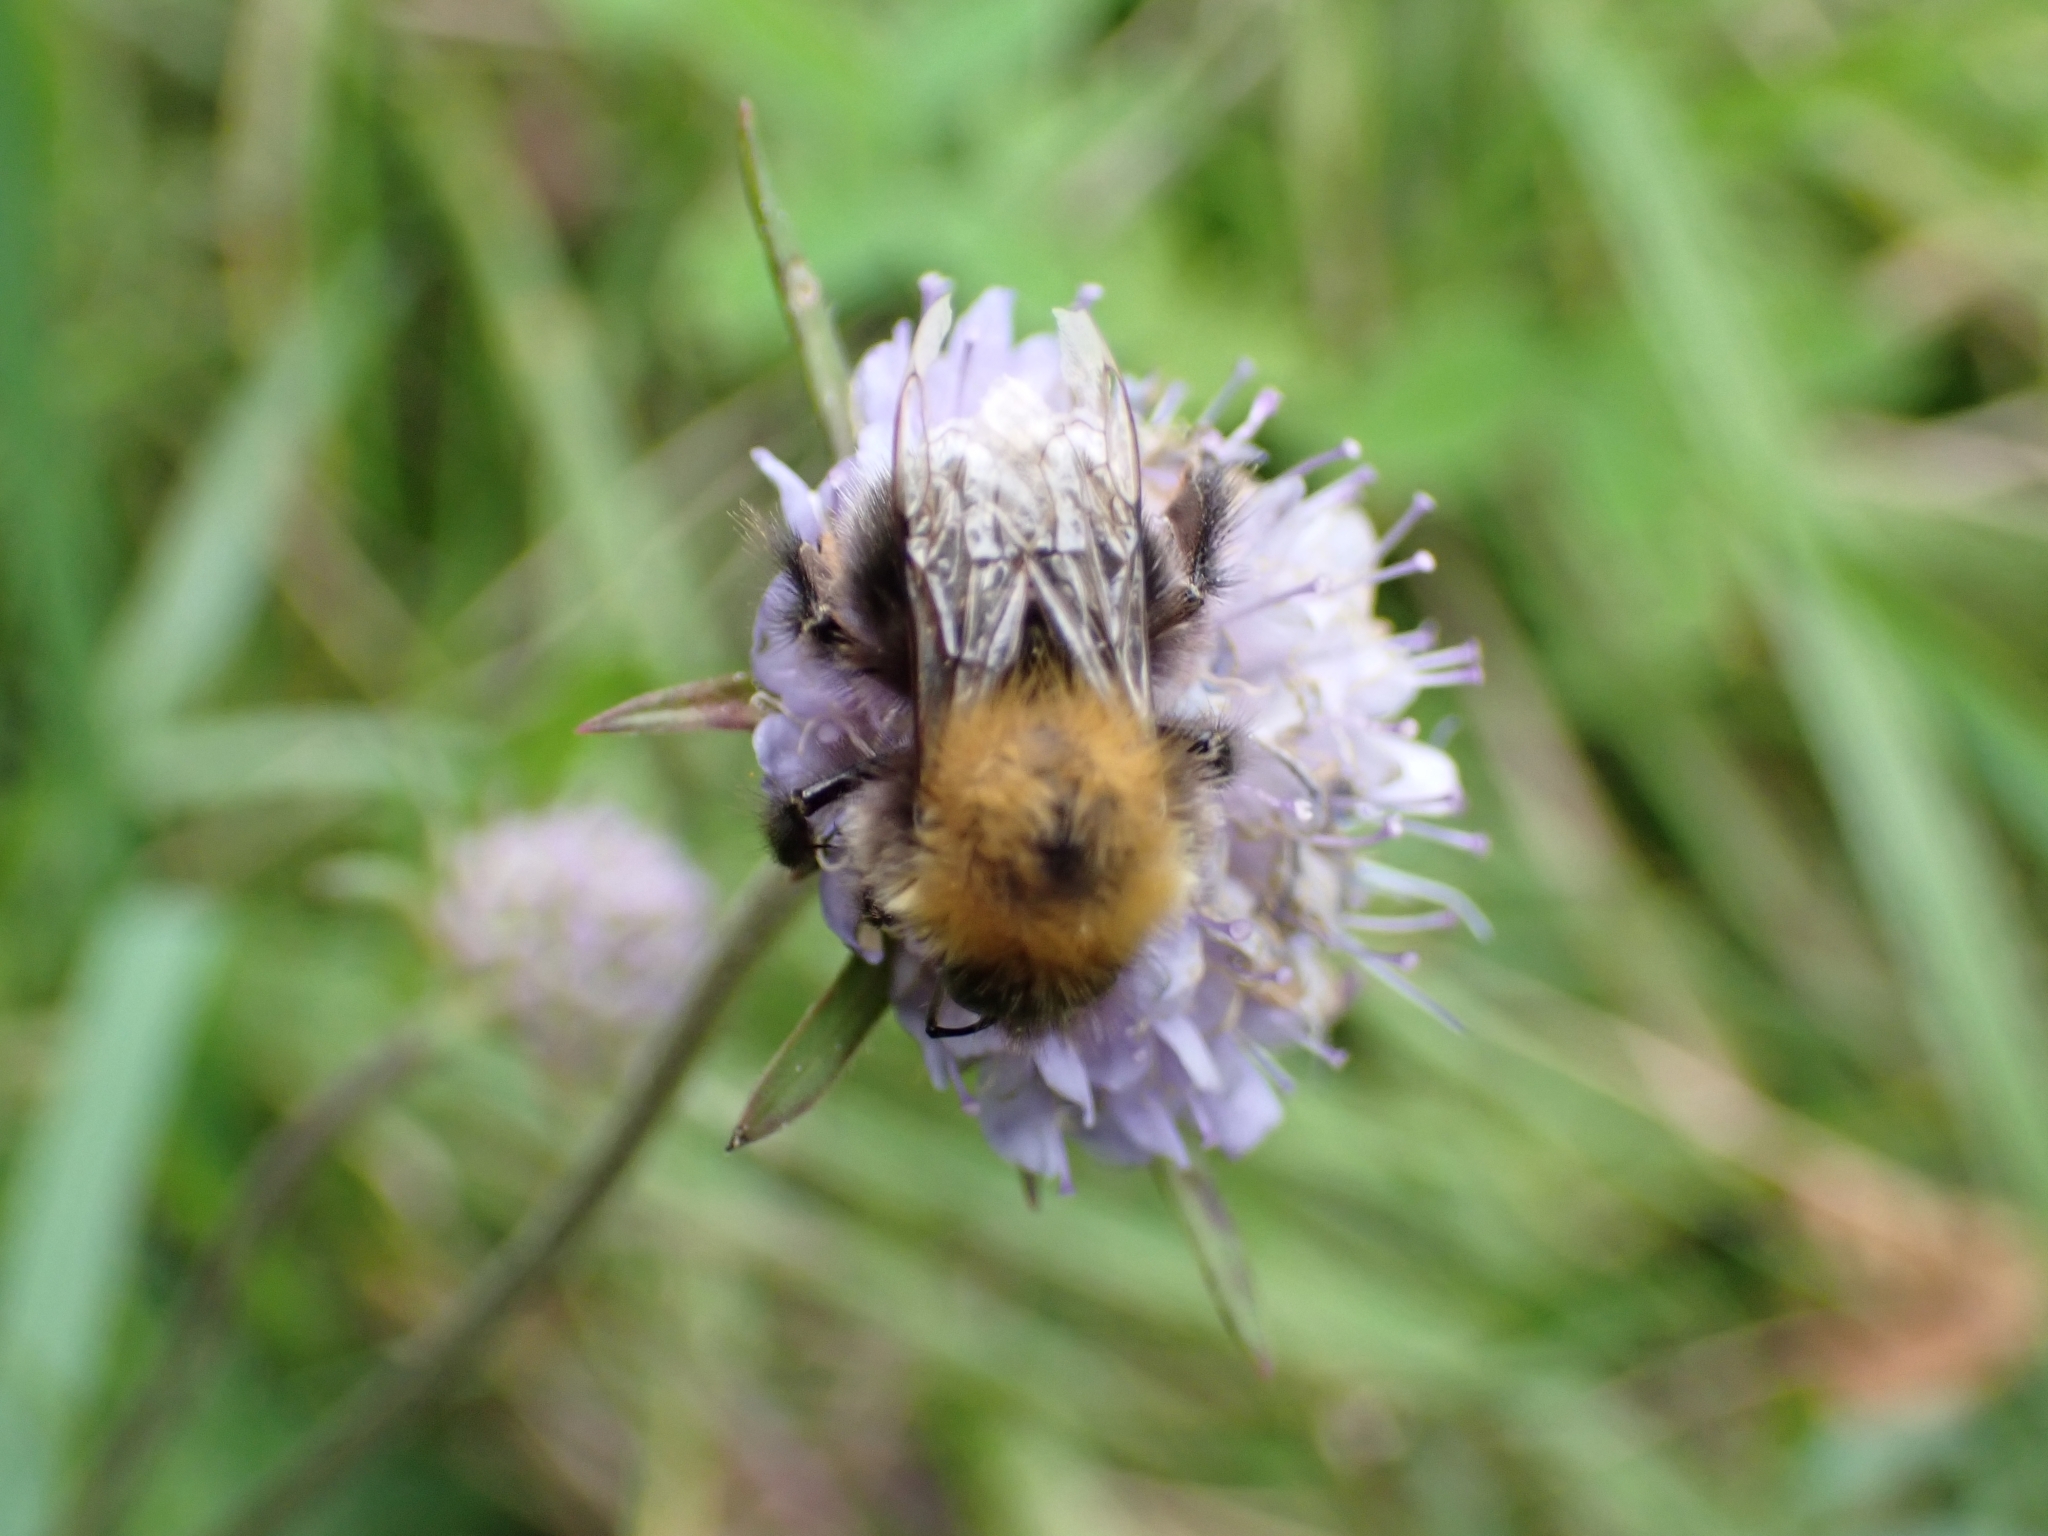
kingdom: Animalia
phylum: Arthropoda
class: Insecta
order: Hymenoptera
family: Apidae
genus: Bombus
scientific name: Bombus hypnorum
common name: New garden bumblebee
